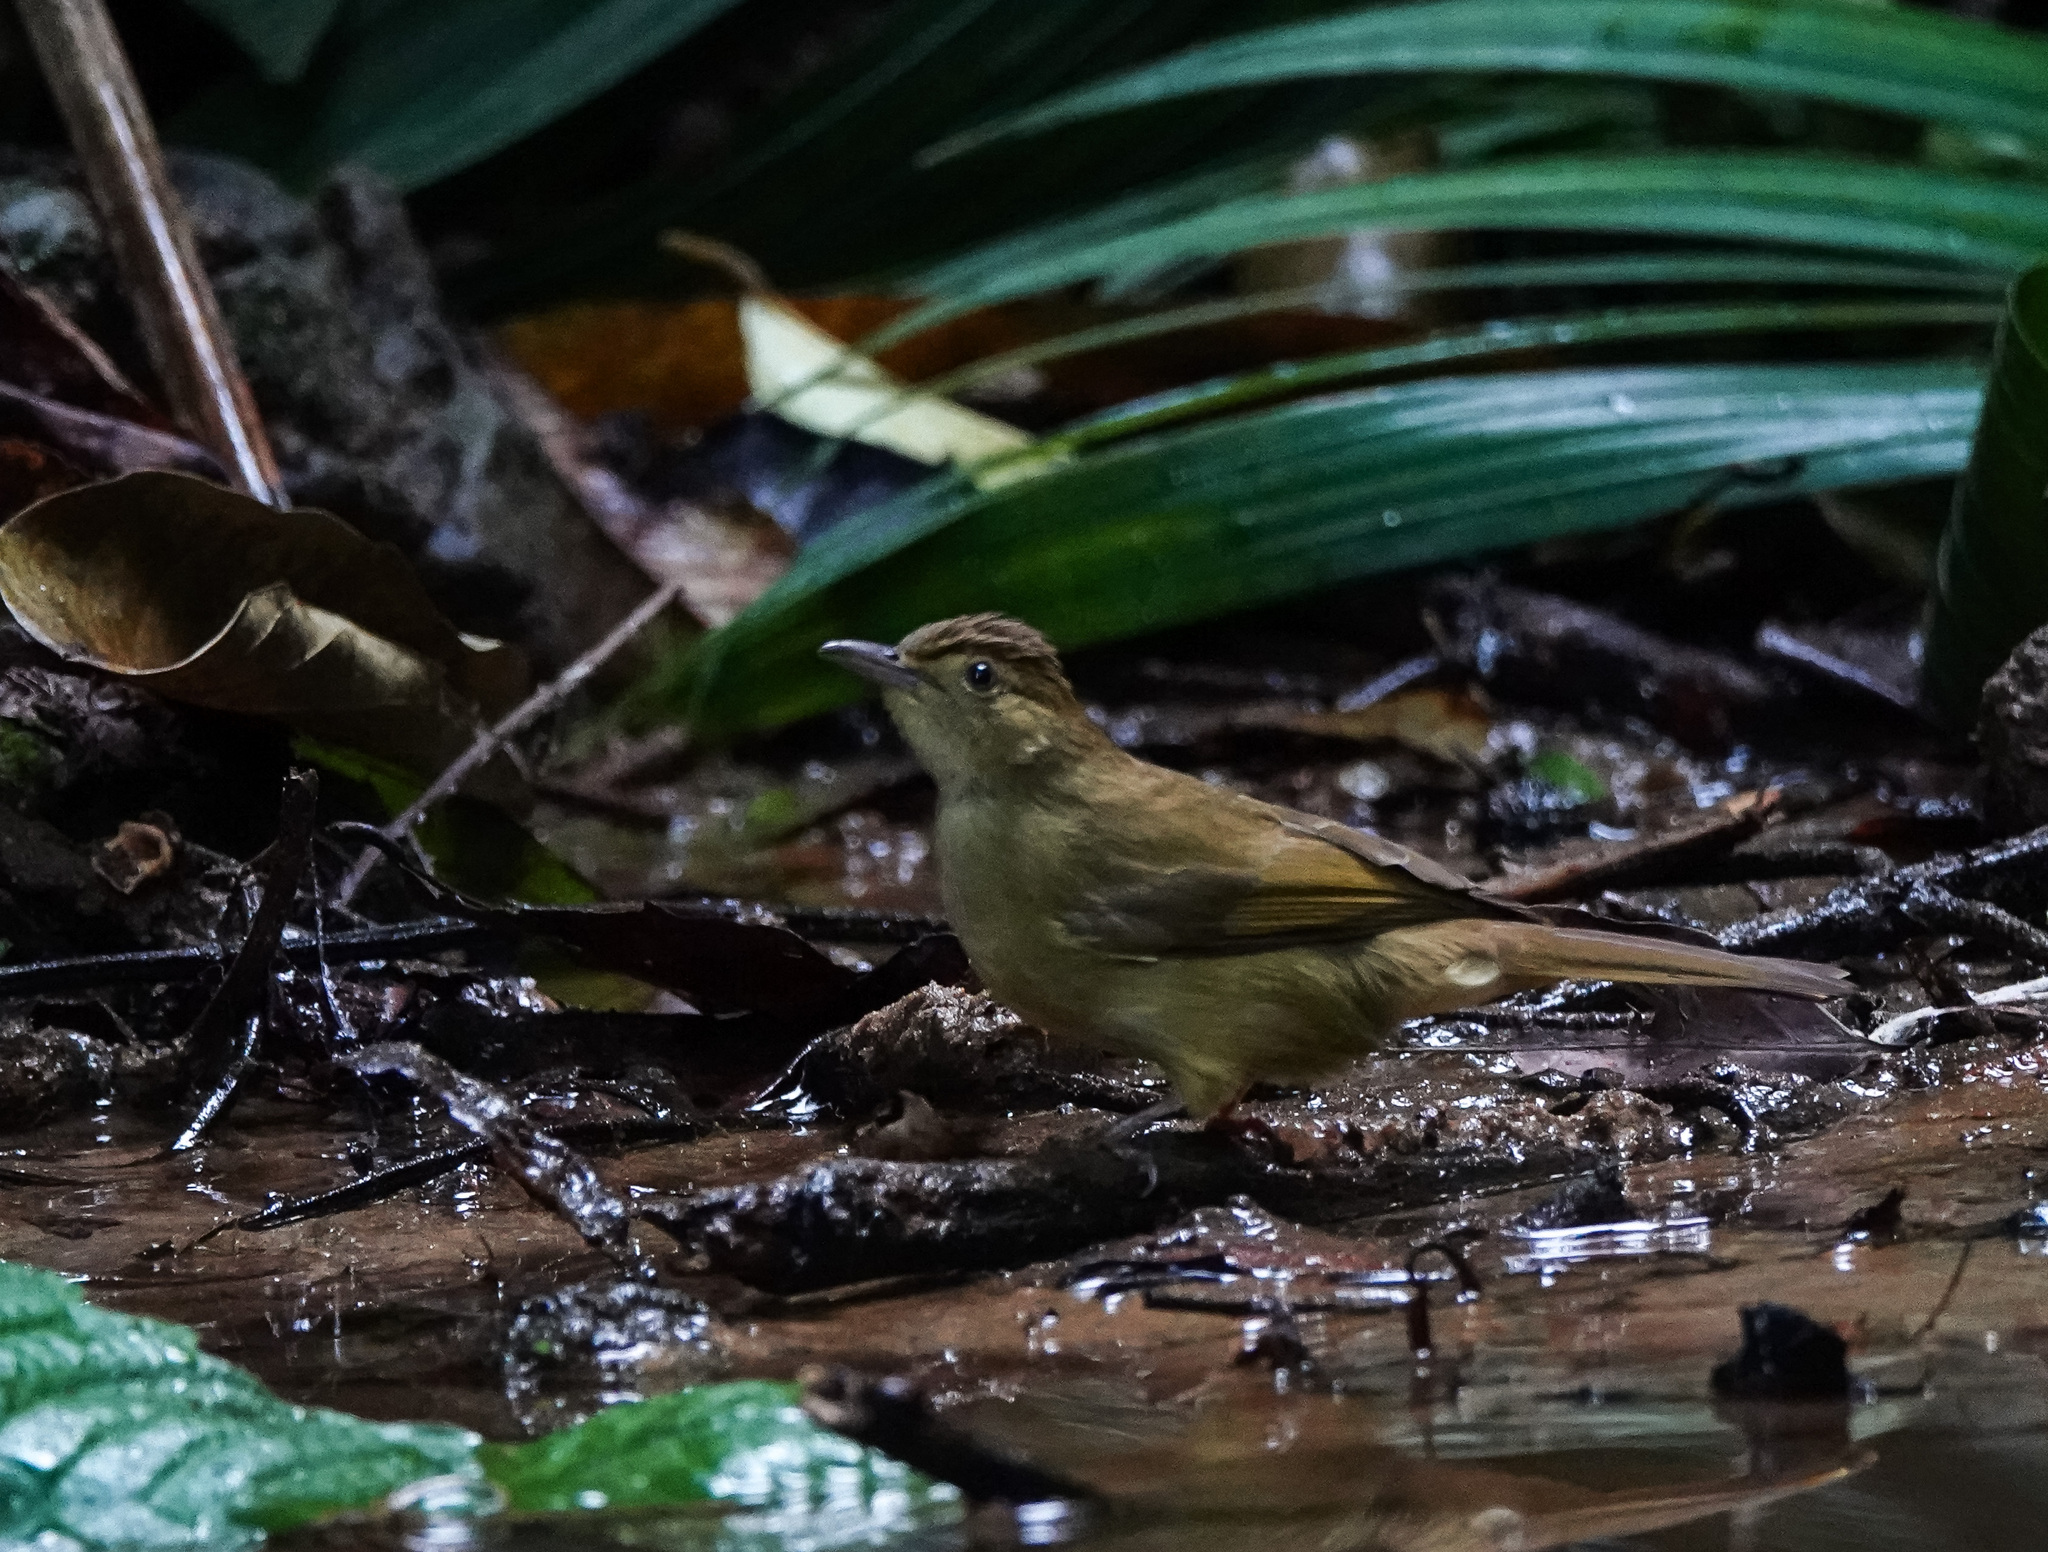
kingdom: Animalia
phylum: Chordata
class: Aves
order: Passeriformes
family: Pycnonotidae
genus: Iole
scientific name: Iole virescens
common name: Olive bulbul
